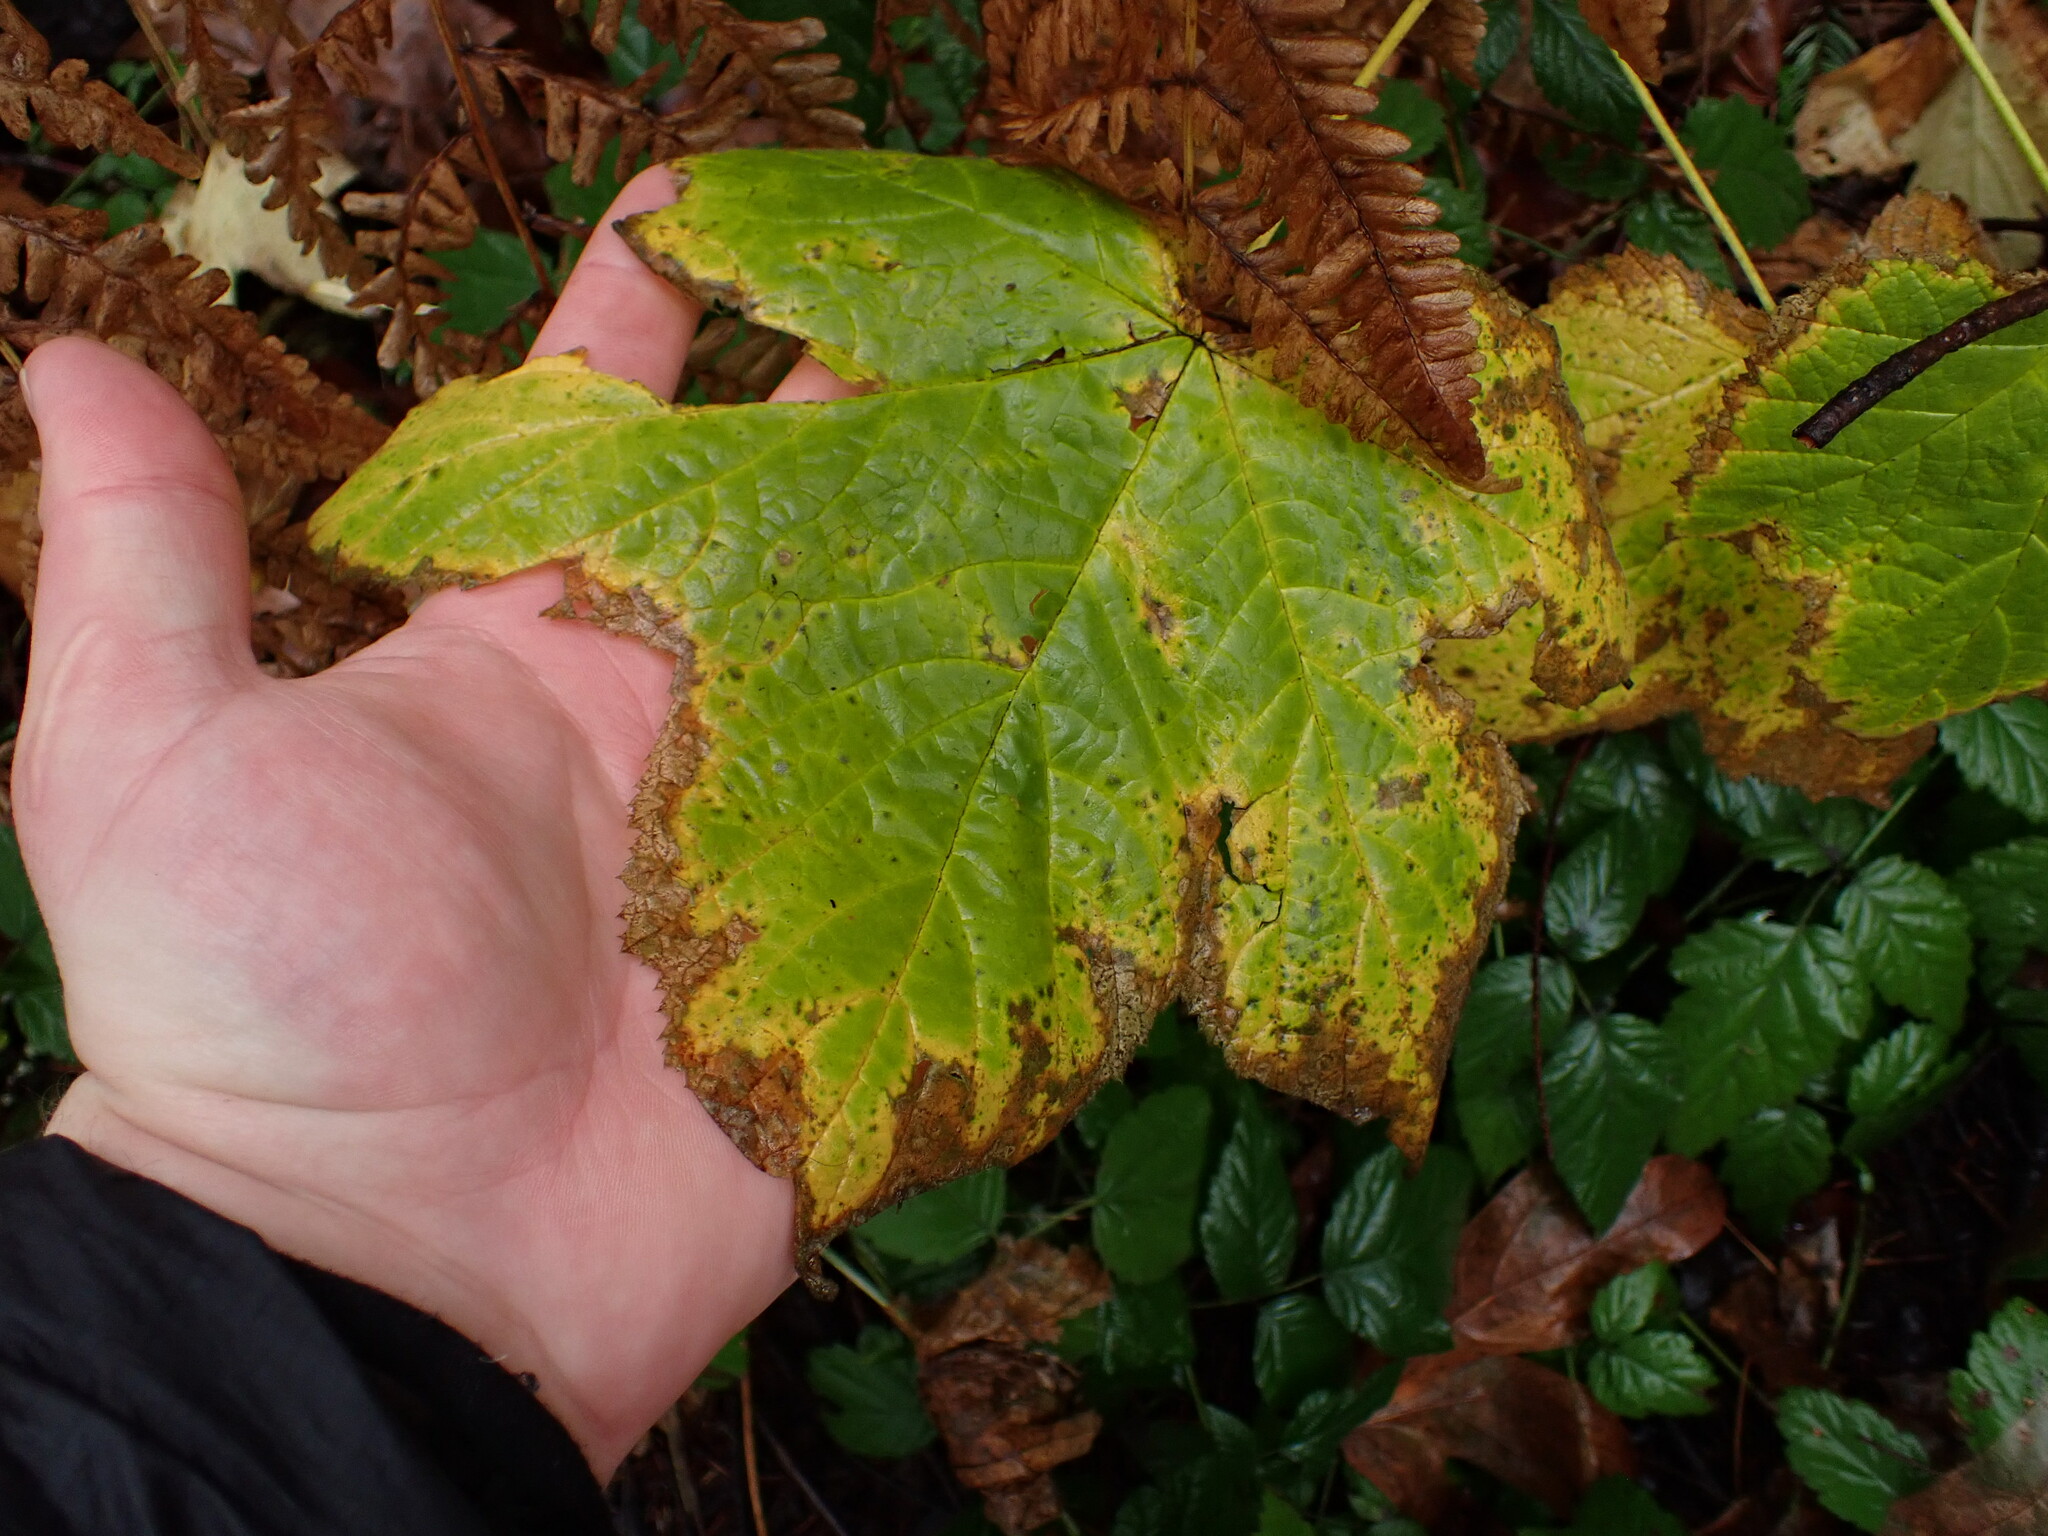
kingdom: Plantae
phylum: Tracheophyta
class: Magnoliopsida
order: Rosales
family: Rosaceae
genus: Rubus
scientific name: Rubus parviflorus
